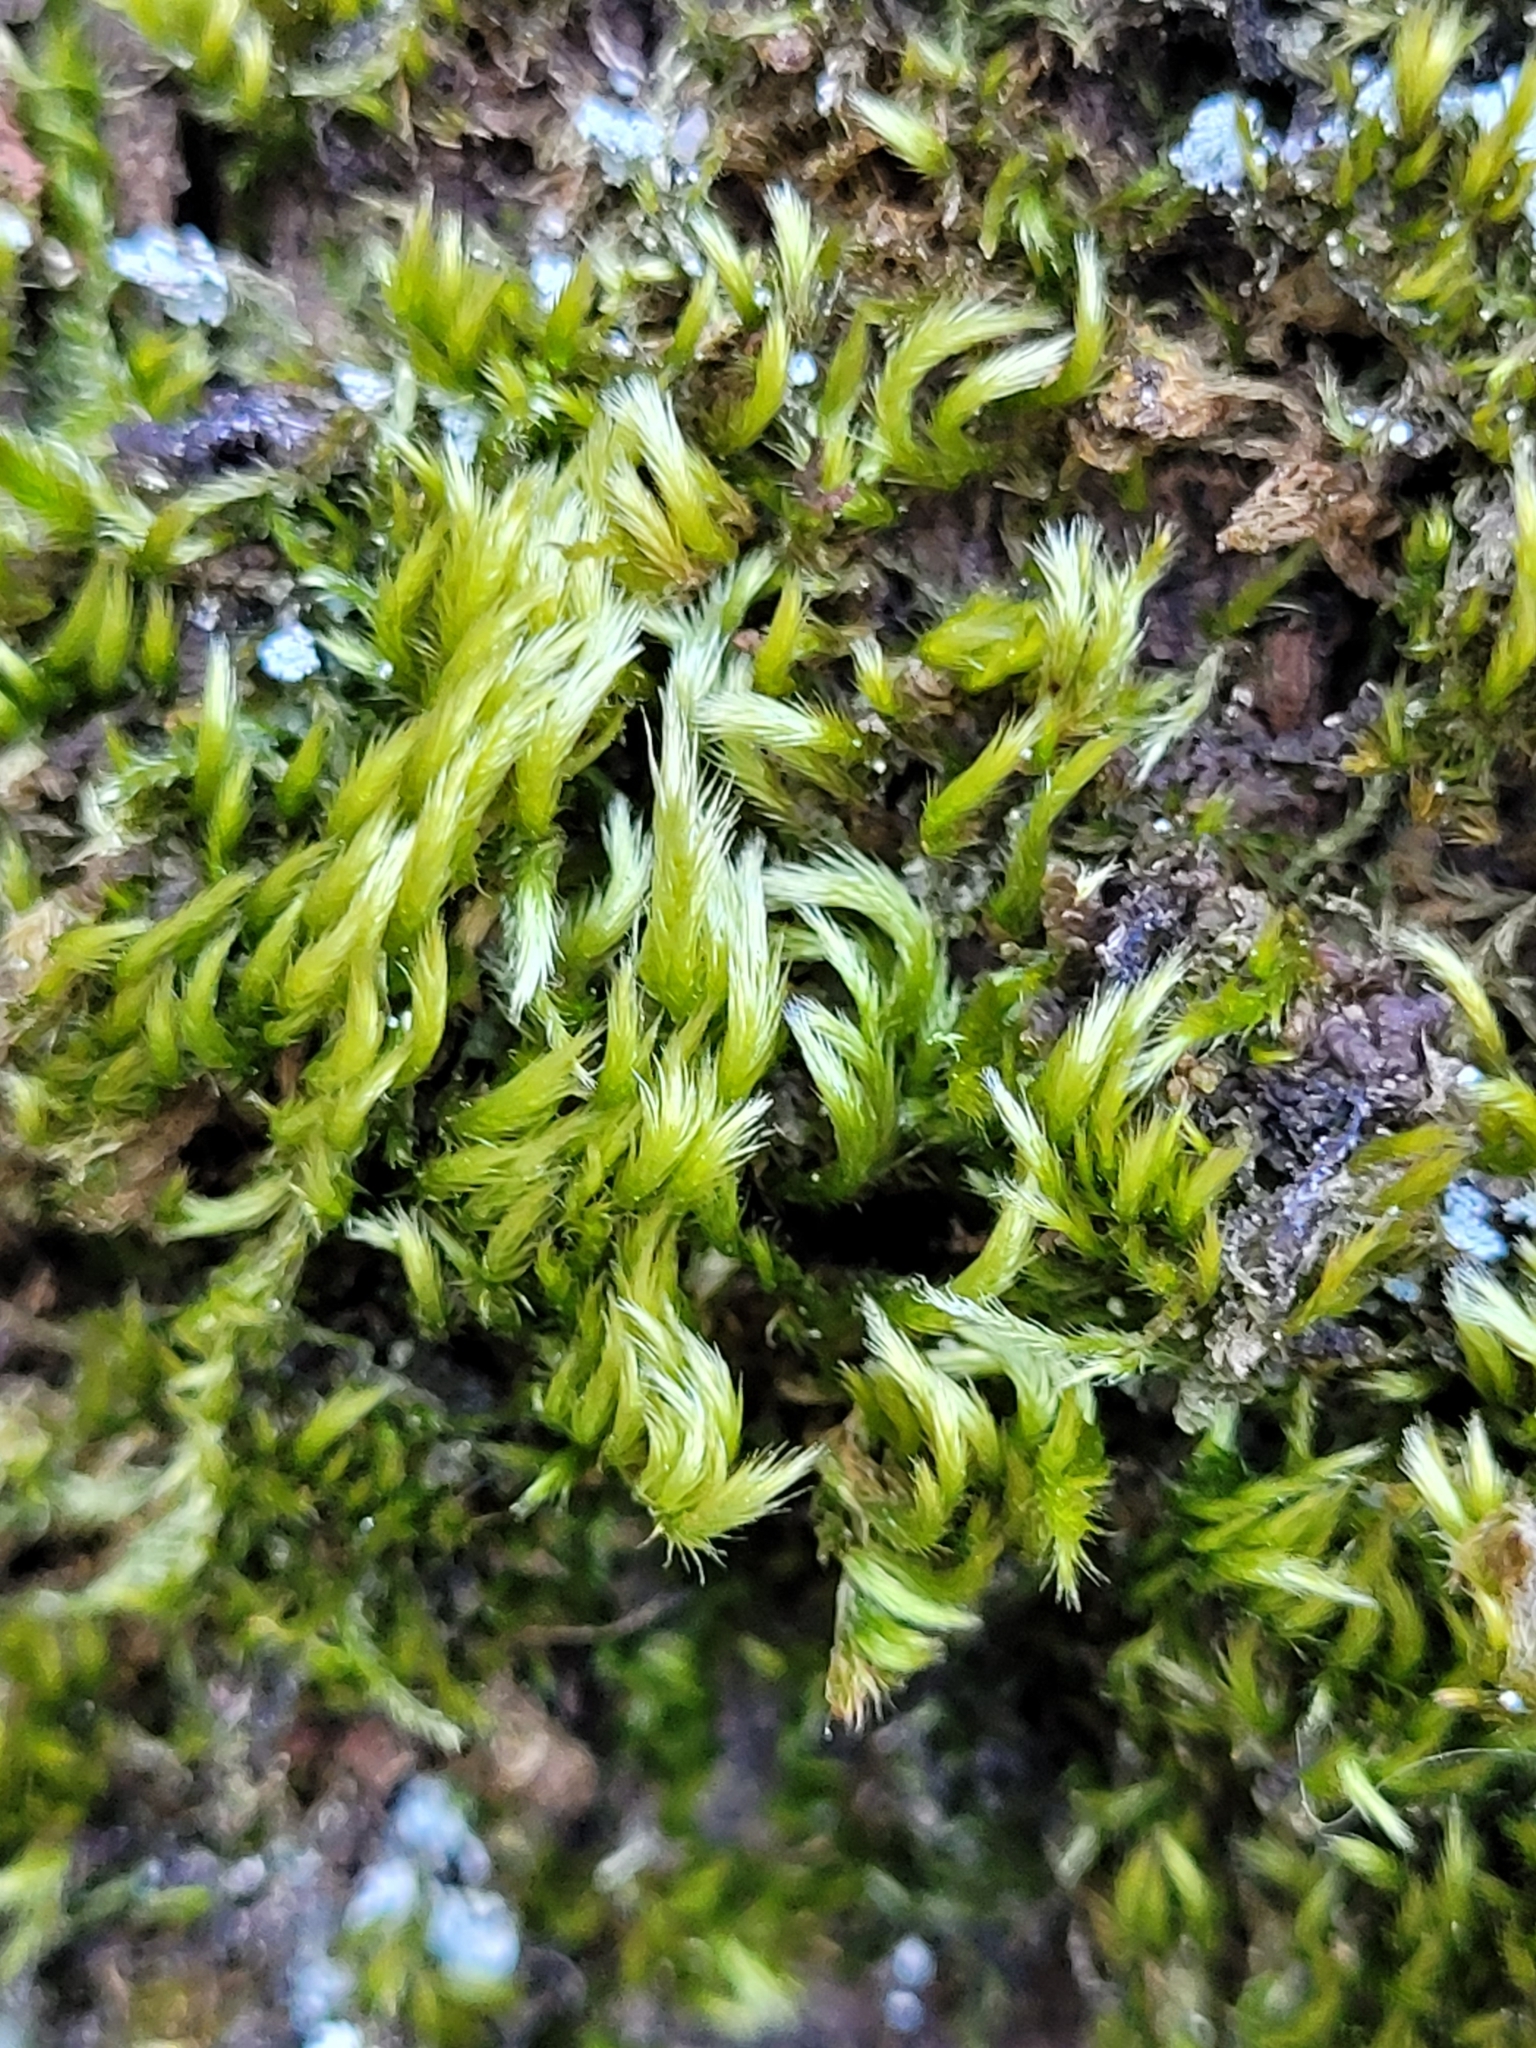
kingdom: Plantae
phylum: Bryophyta
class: Bryopsida
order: Hypnales
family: Brachytheciaceae
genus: Homalothecium
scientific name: Homalothecium sericeum
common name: Silky wall feather-moss
